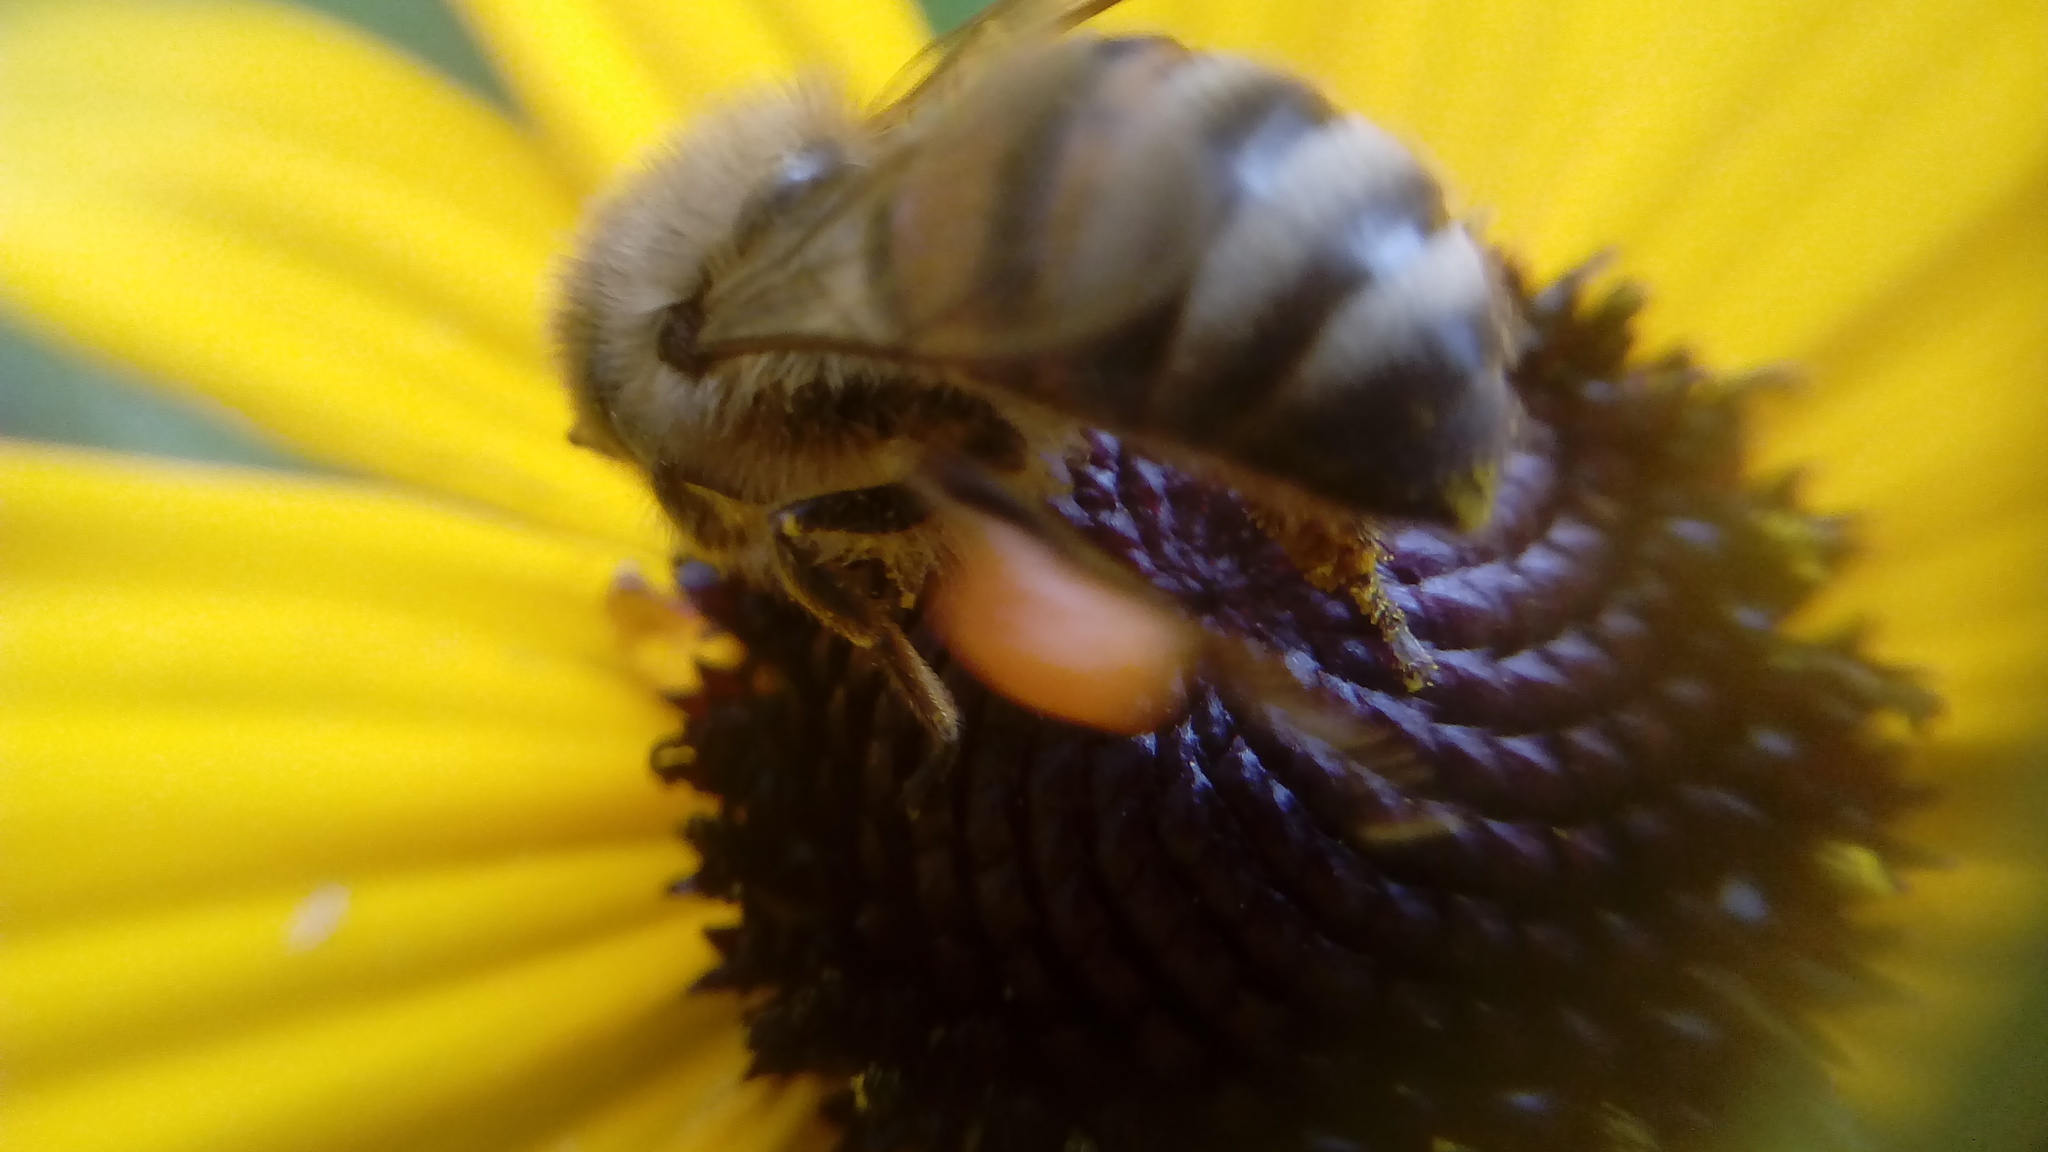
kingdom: Animalia
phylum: Arthropoda
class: Insecta
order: Hymenoptera
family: Apidae
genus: Apis
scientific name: Apis mellifera
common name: Honey bee
